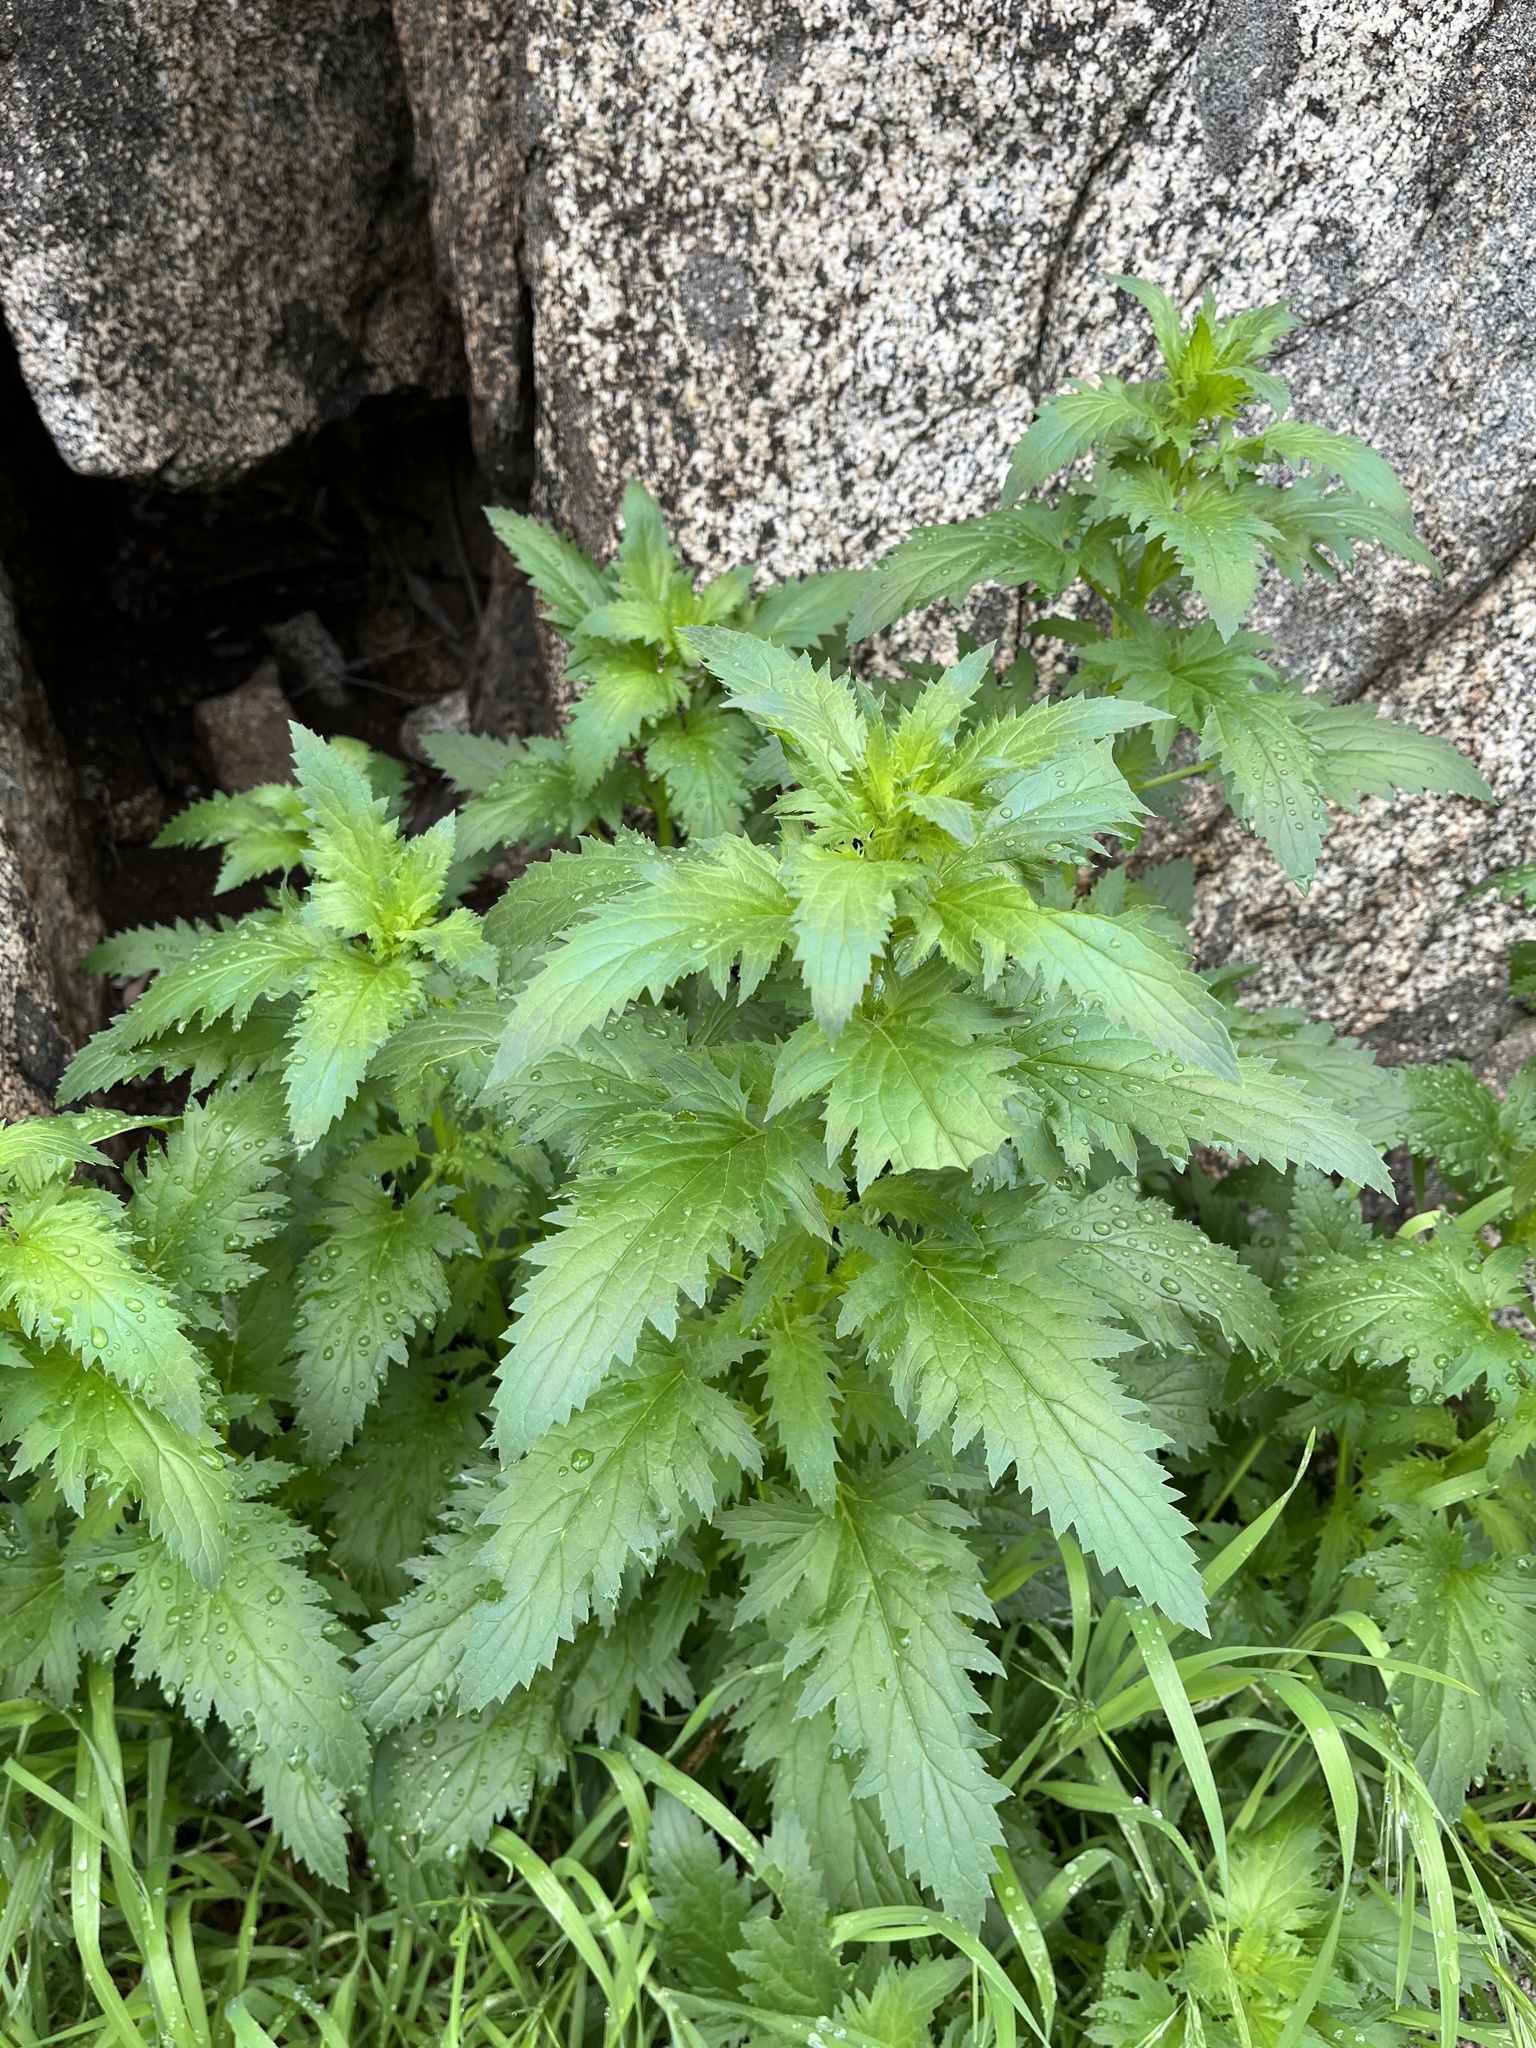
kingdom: Plantae
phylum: Tracheophyta
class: Magnoliopsida
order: Lamiales
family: Scrophulariaceae
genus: Scrophularia
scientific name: Scrophularia californica
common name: California figwort
